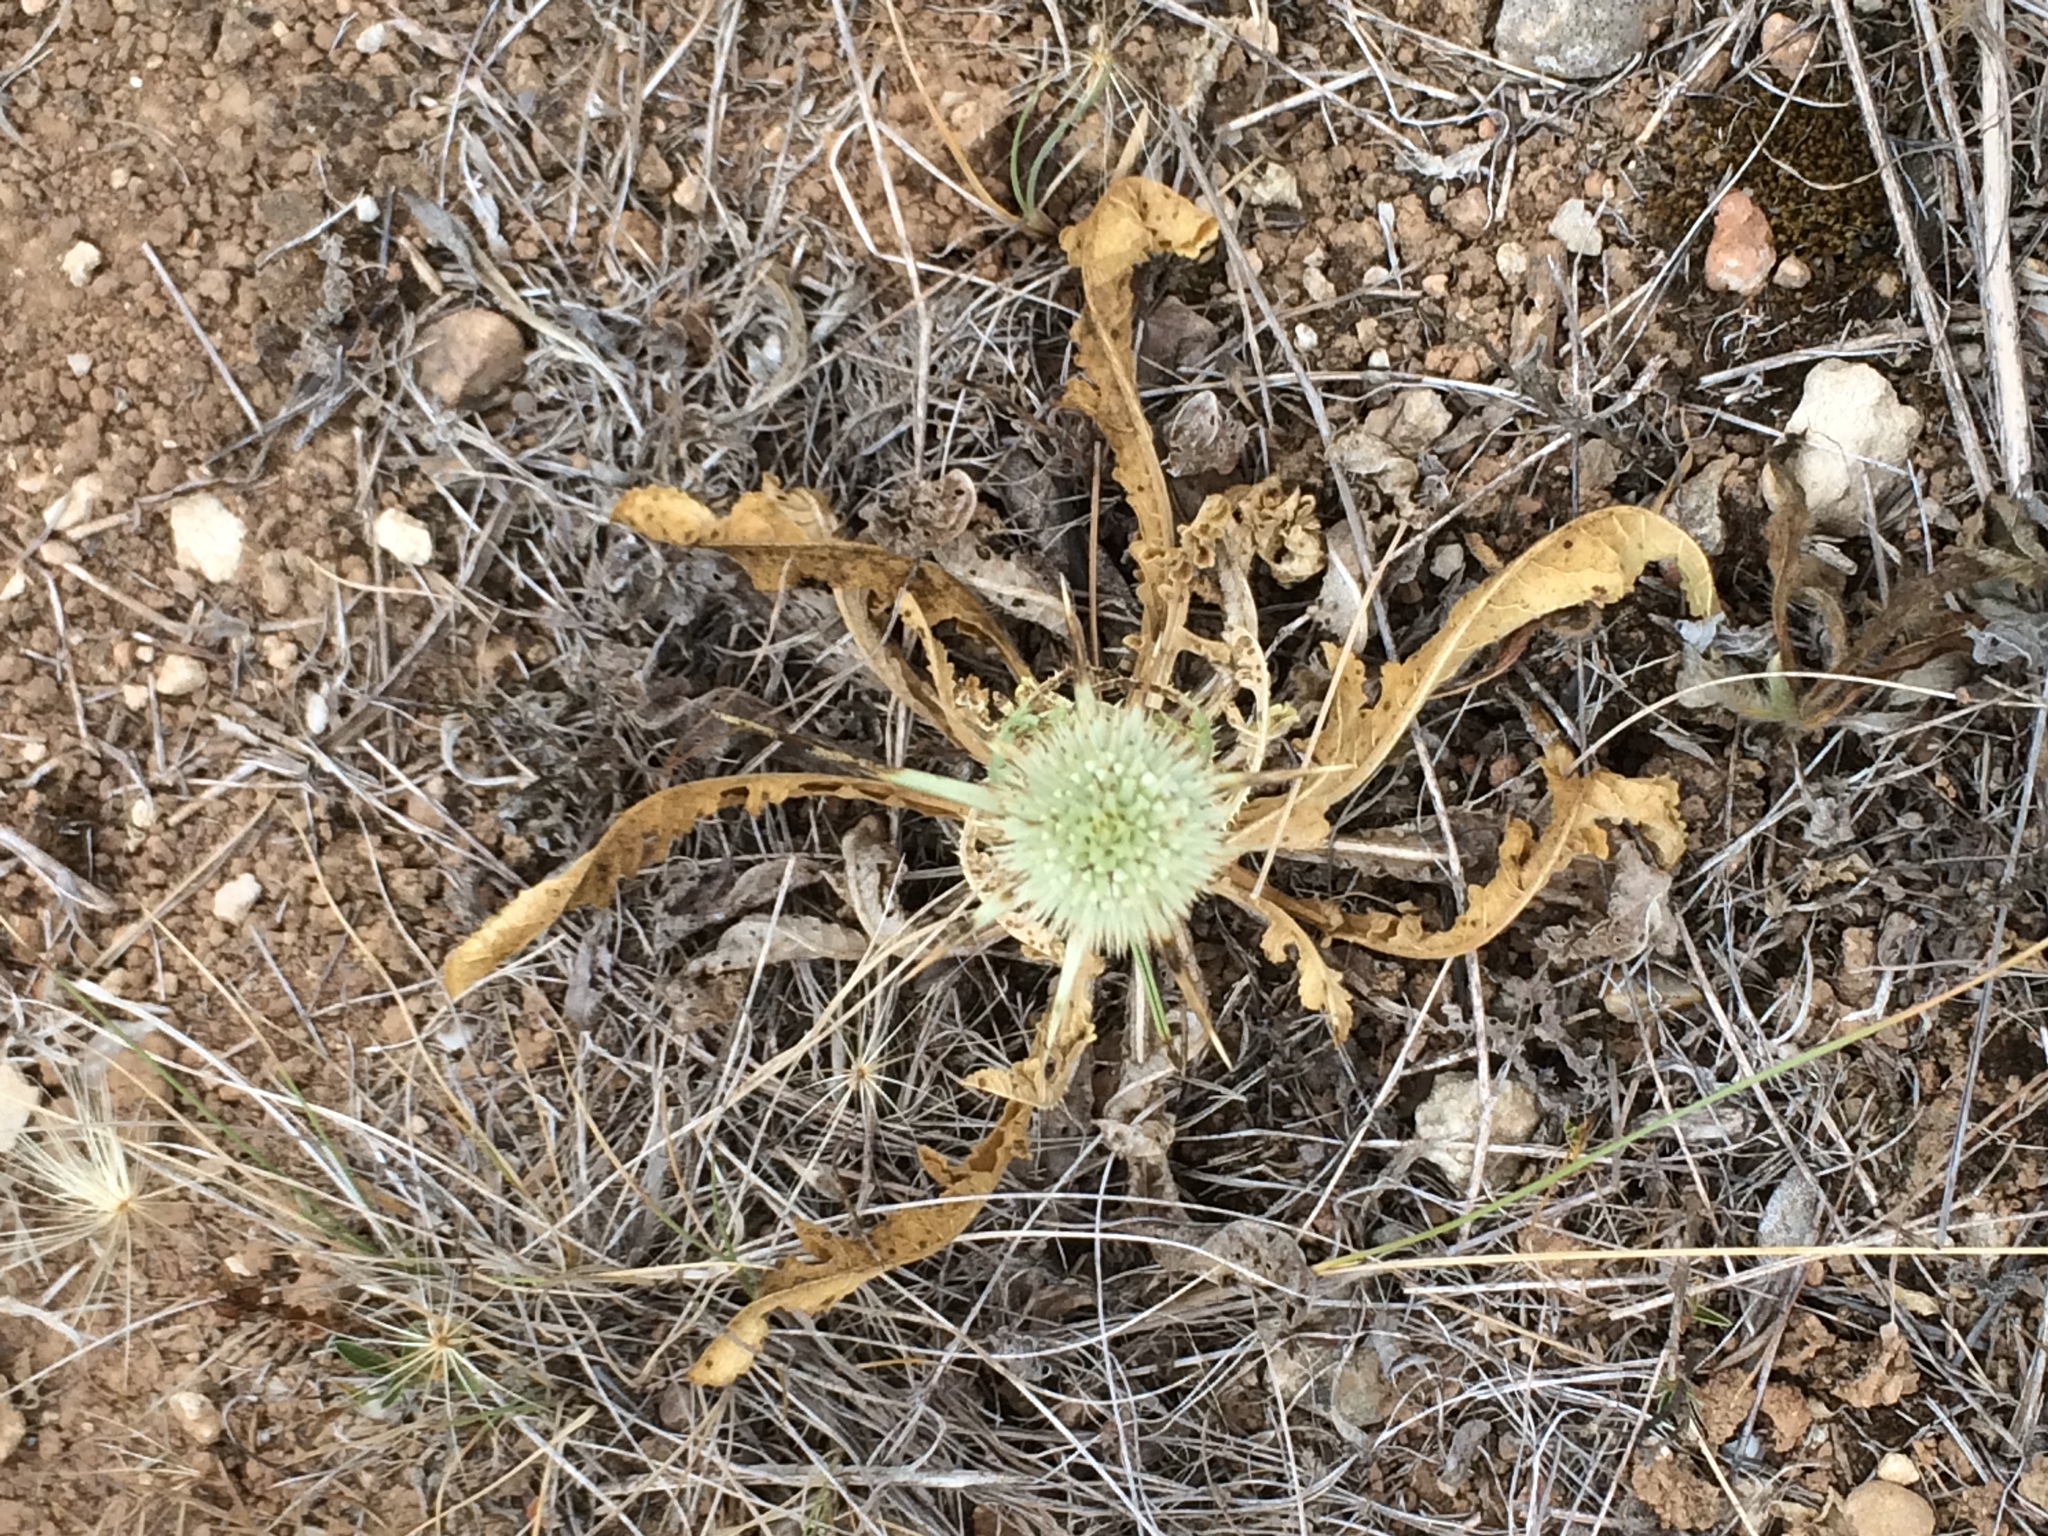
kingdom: Plantae
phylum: Tracheophyta
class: Magnoliopsida
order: Dipsacales
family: Caprifoliaceae
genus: Dipsacus
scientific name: Dipsacus comosus
